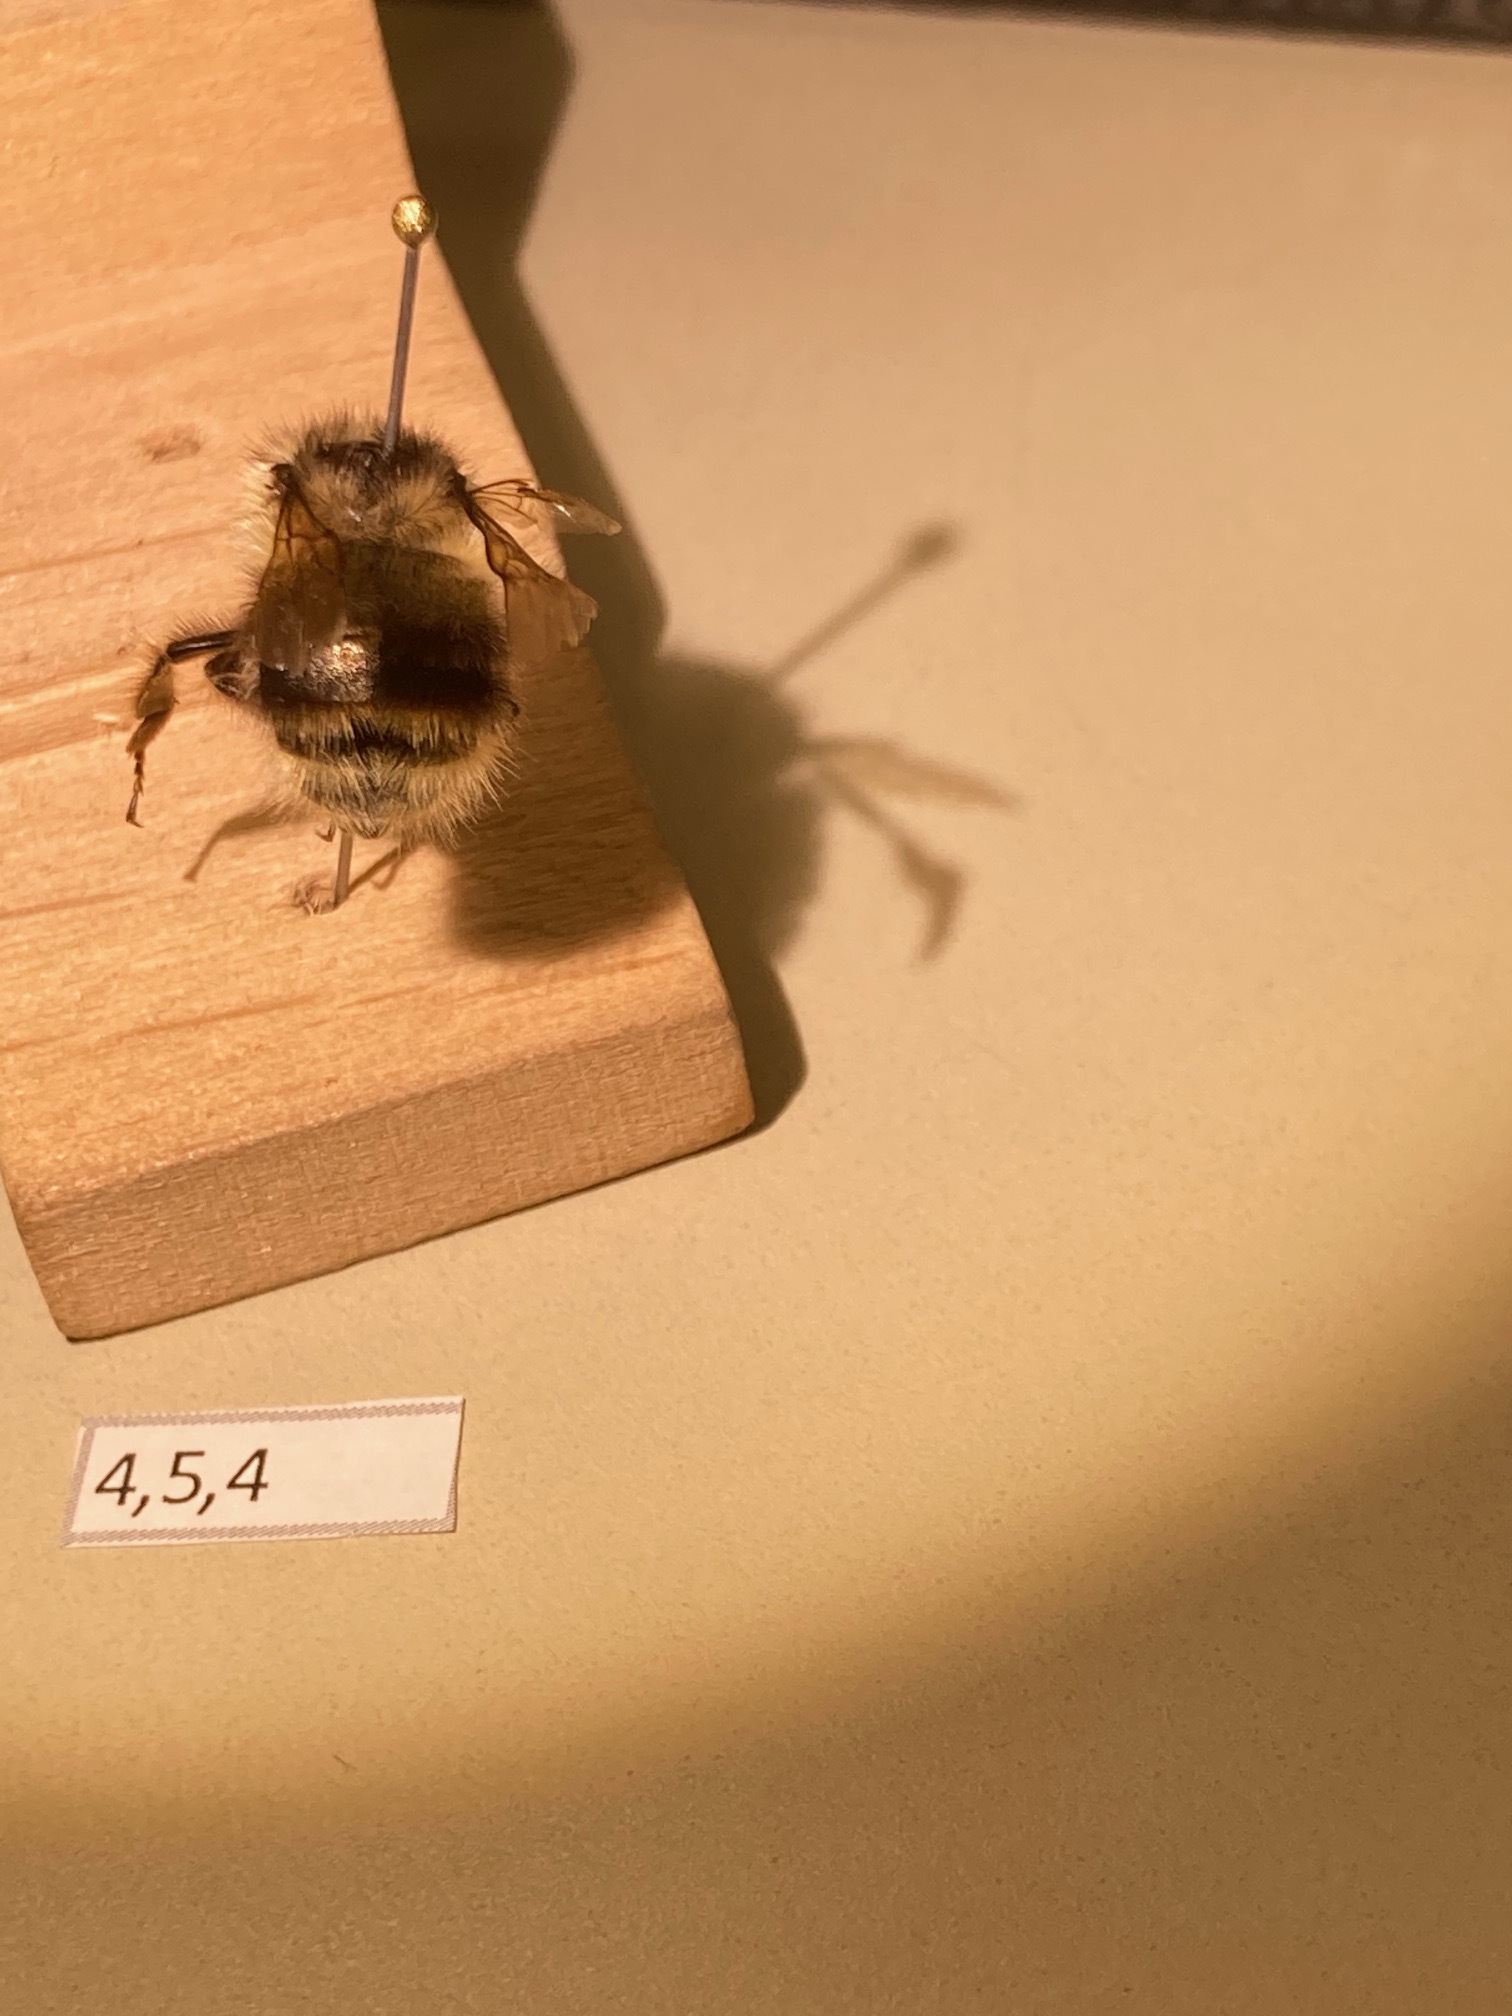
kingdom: Animalia
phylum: Arthropoda
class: Insecta
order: Hymenoptera
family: Apidae
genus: Bombus
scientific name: Bombus mixtus
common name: Fuzzy-horned bumble bee
